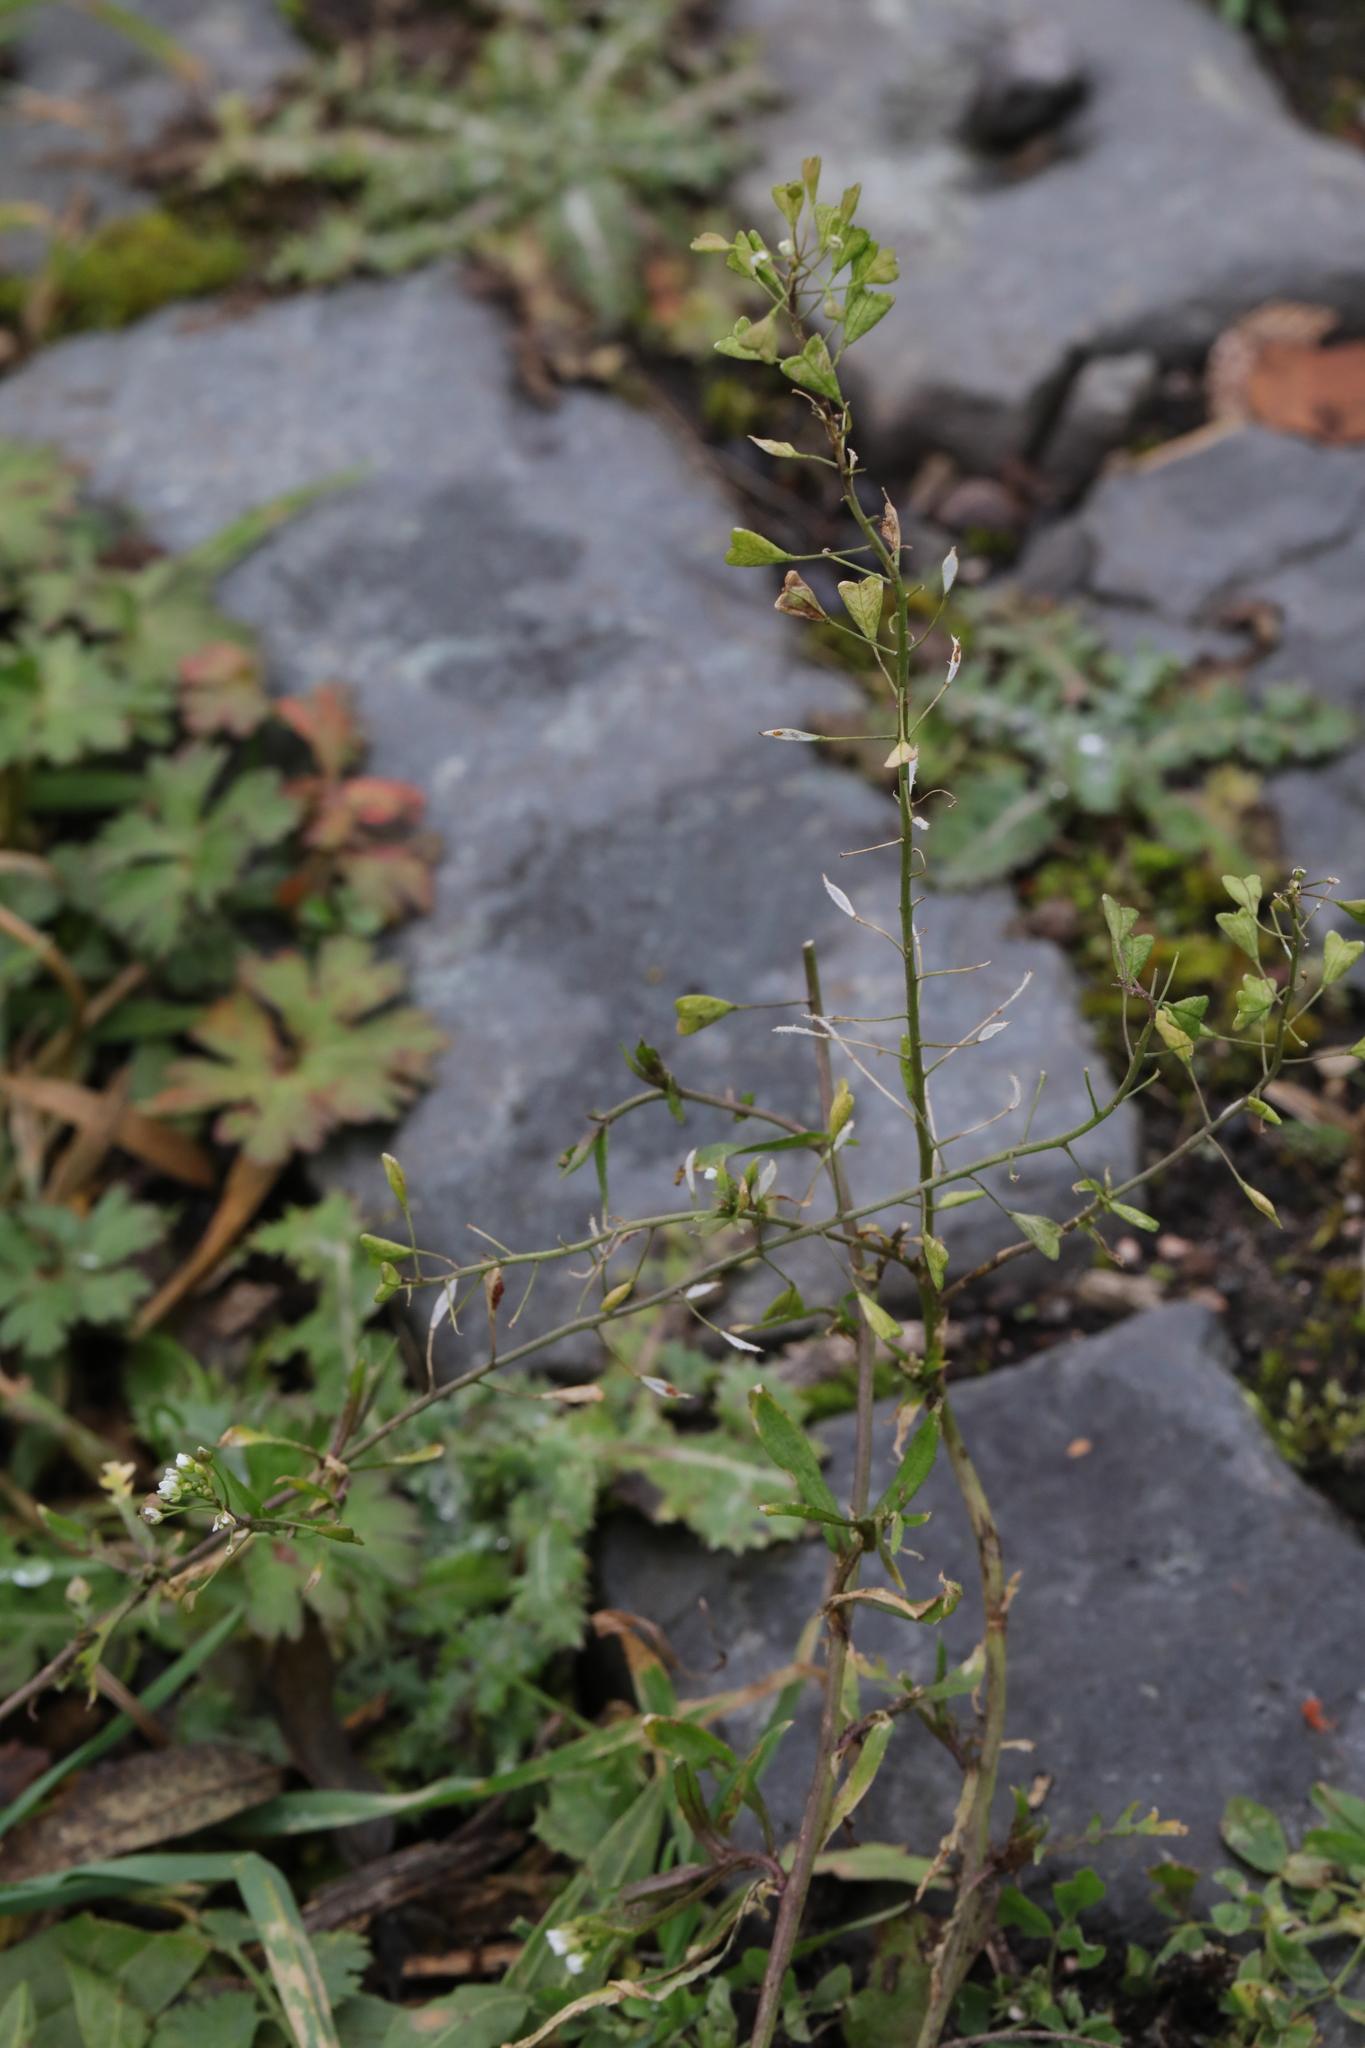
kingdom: Plantae
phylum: Tracheophyta
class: Magnoliopsida
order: Brassicales
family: Brassicaceae
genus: Capsella
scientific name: Capsella bursa-pastoris
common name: Shepherd's purse
